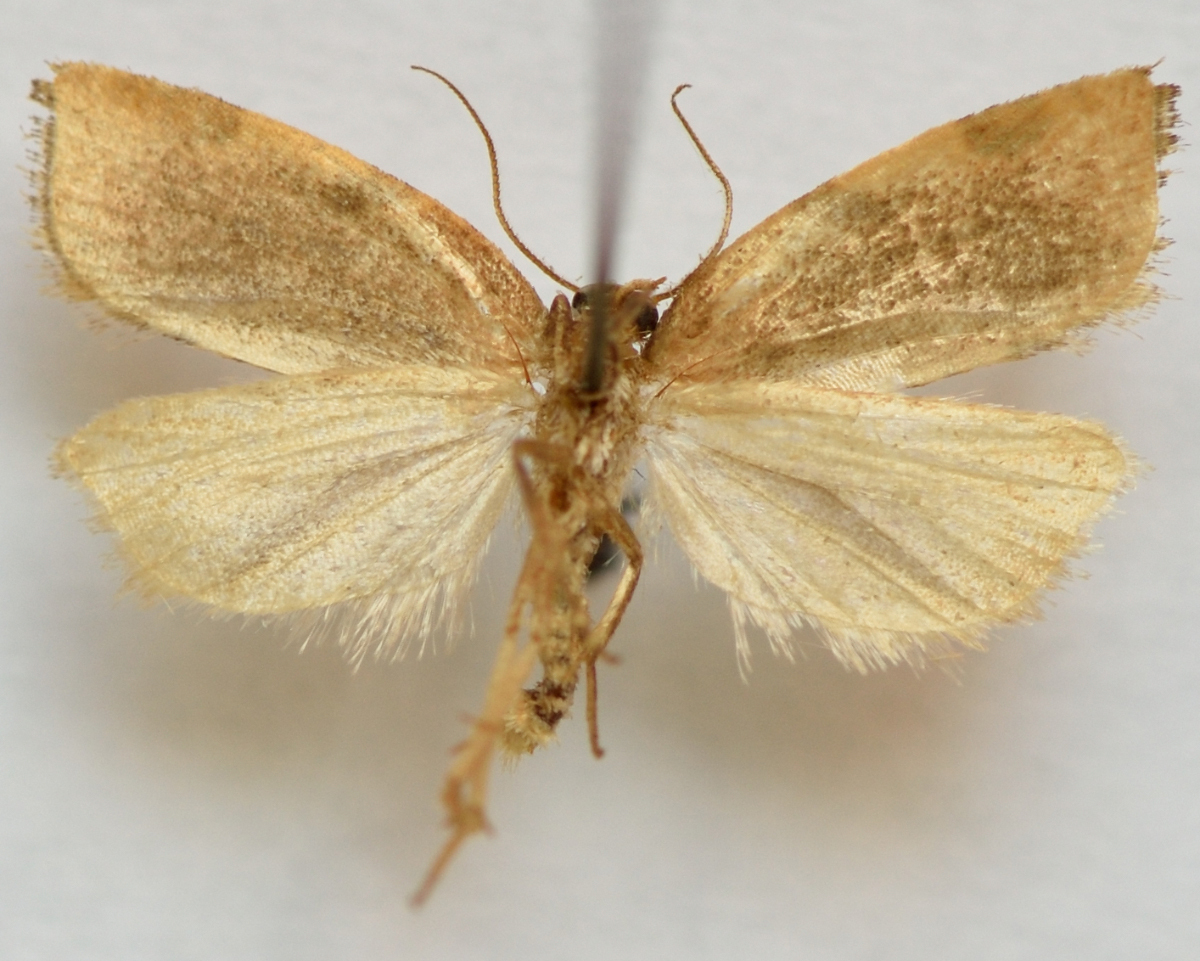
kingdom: Animalia
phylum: Arthropoda
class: Insecta
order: Lepidoptera
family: Tortricidae
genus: Paramesia
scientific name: Paramesia gnomana
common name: Small straw twist
